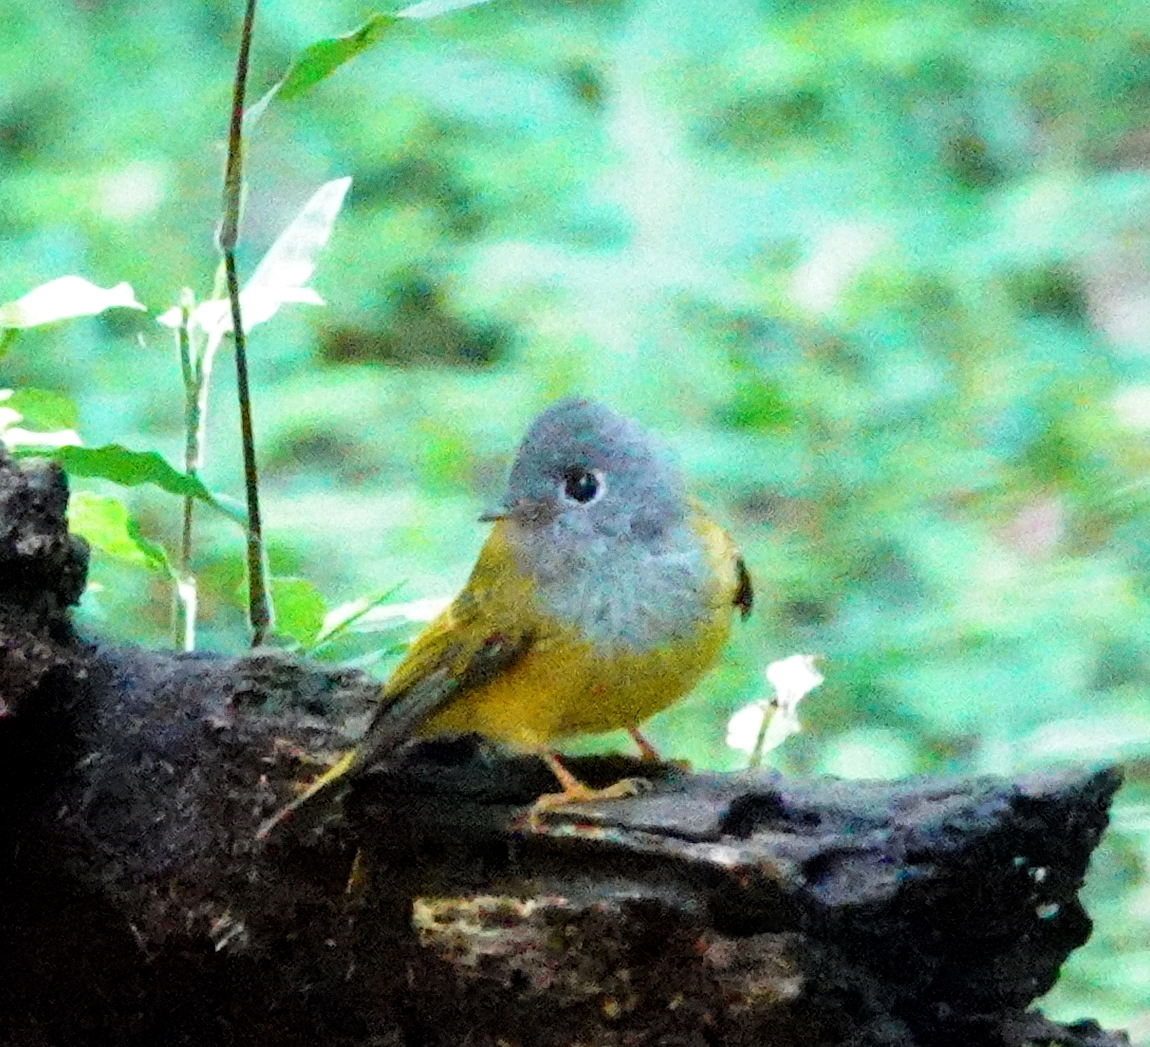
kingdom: Animalia
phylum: Chordata
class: Aves
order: Passeriformes
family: Stenostiridae
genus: Culicicapa
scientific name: Culicicapa ceylonensis
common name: Grey-headed canary-flycatcher
